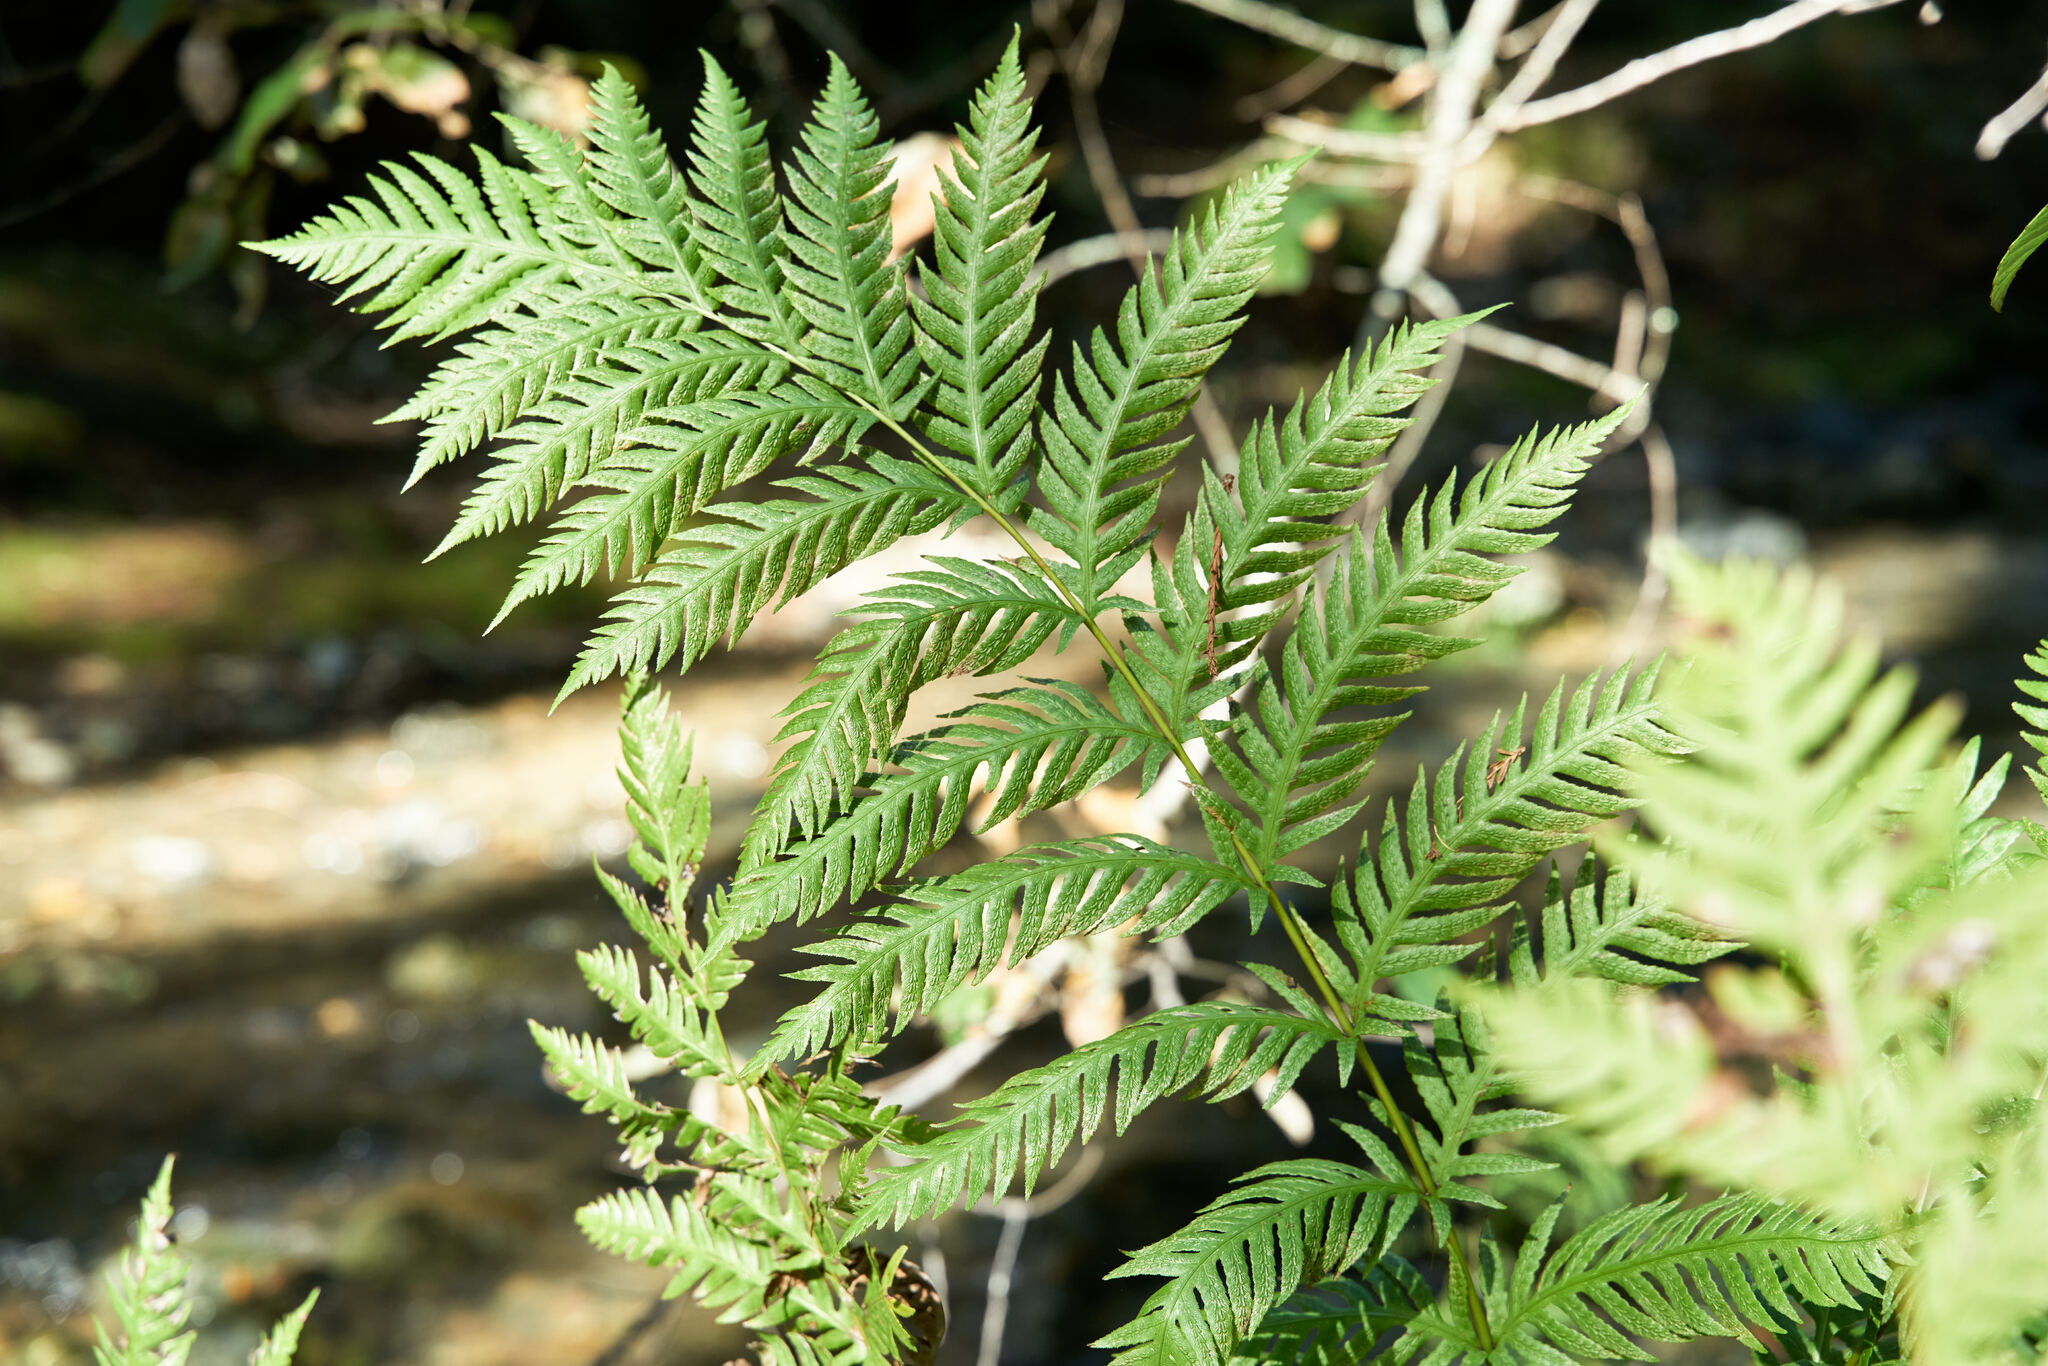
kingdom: Plantae
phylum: Tracheophyta
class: Polypodiopsida
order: Polypodiales
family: Blechnaceae
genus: Woodwardia
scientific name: Woodwardia fimbriata
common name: Giant chain fern
